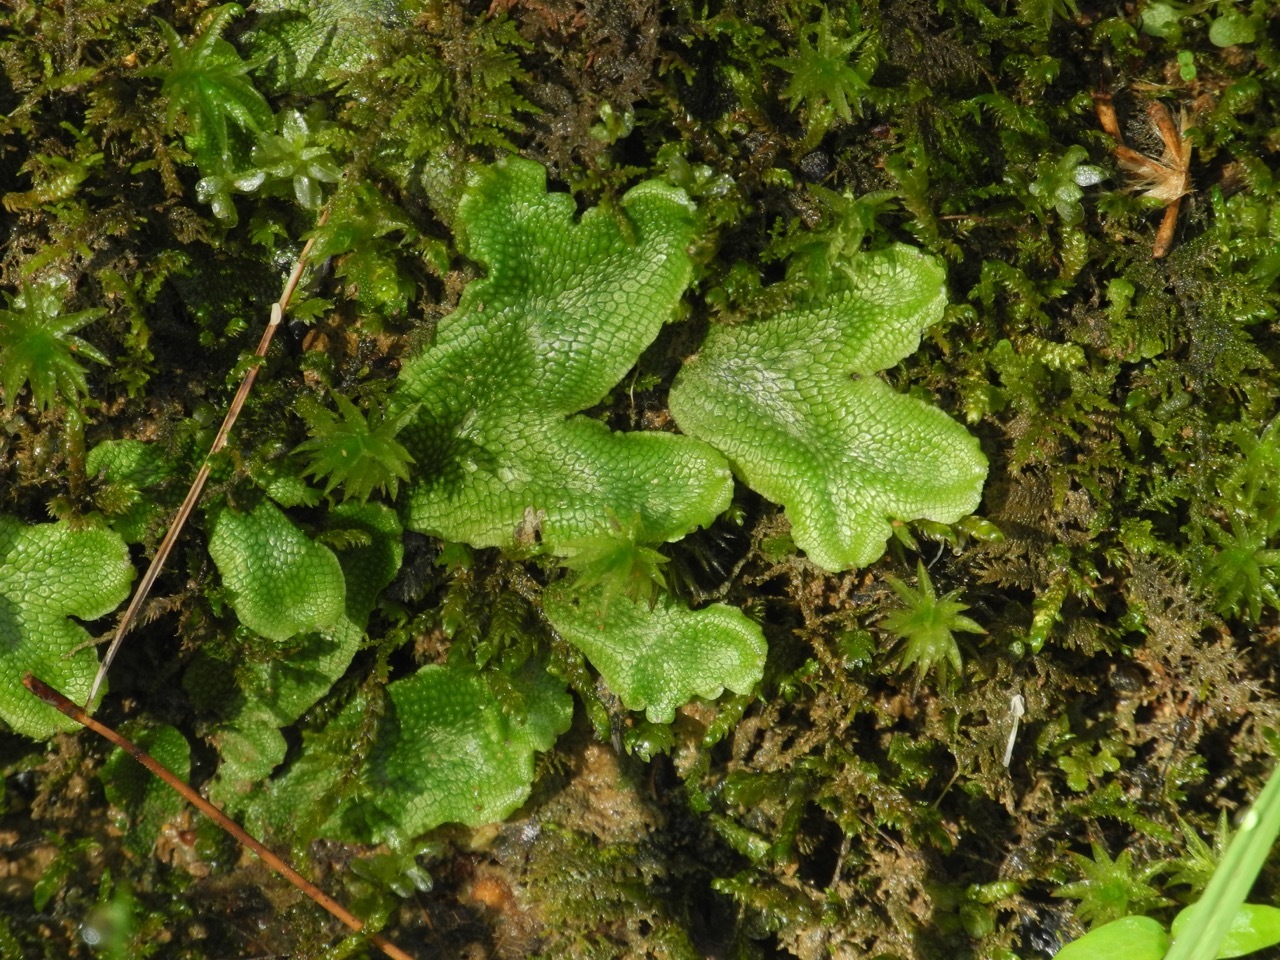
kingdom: Plantae
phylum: Marchantiophyta
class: Marchantiopsida
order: Marchantiales
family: Conocephalaceae
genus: Conocephalum
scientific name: Conocephalum salebrosum
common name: Cat-tongue liverwort
